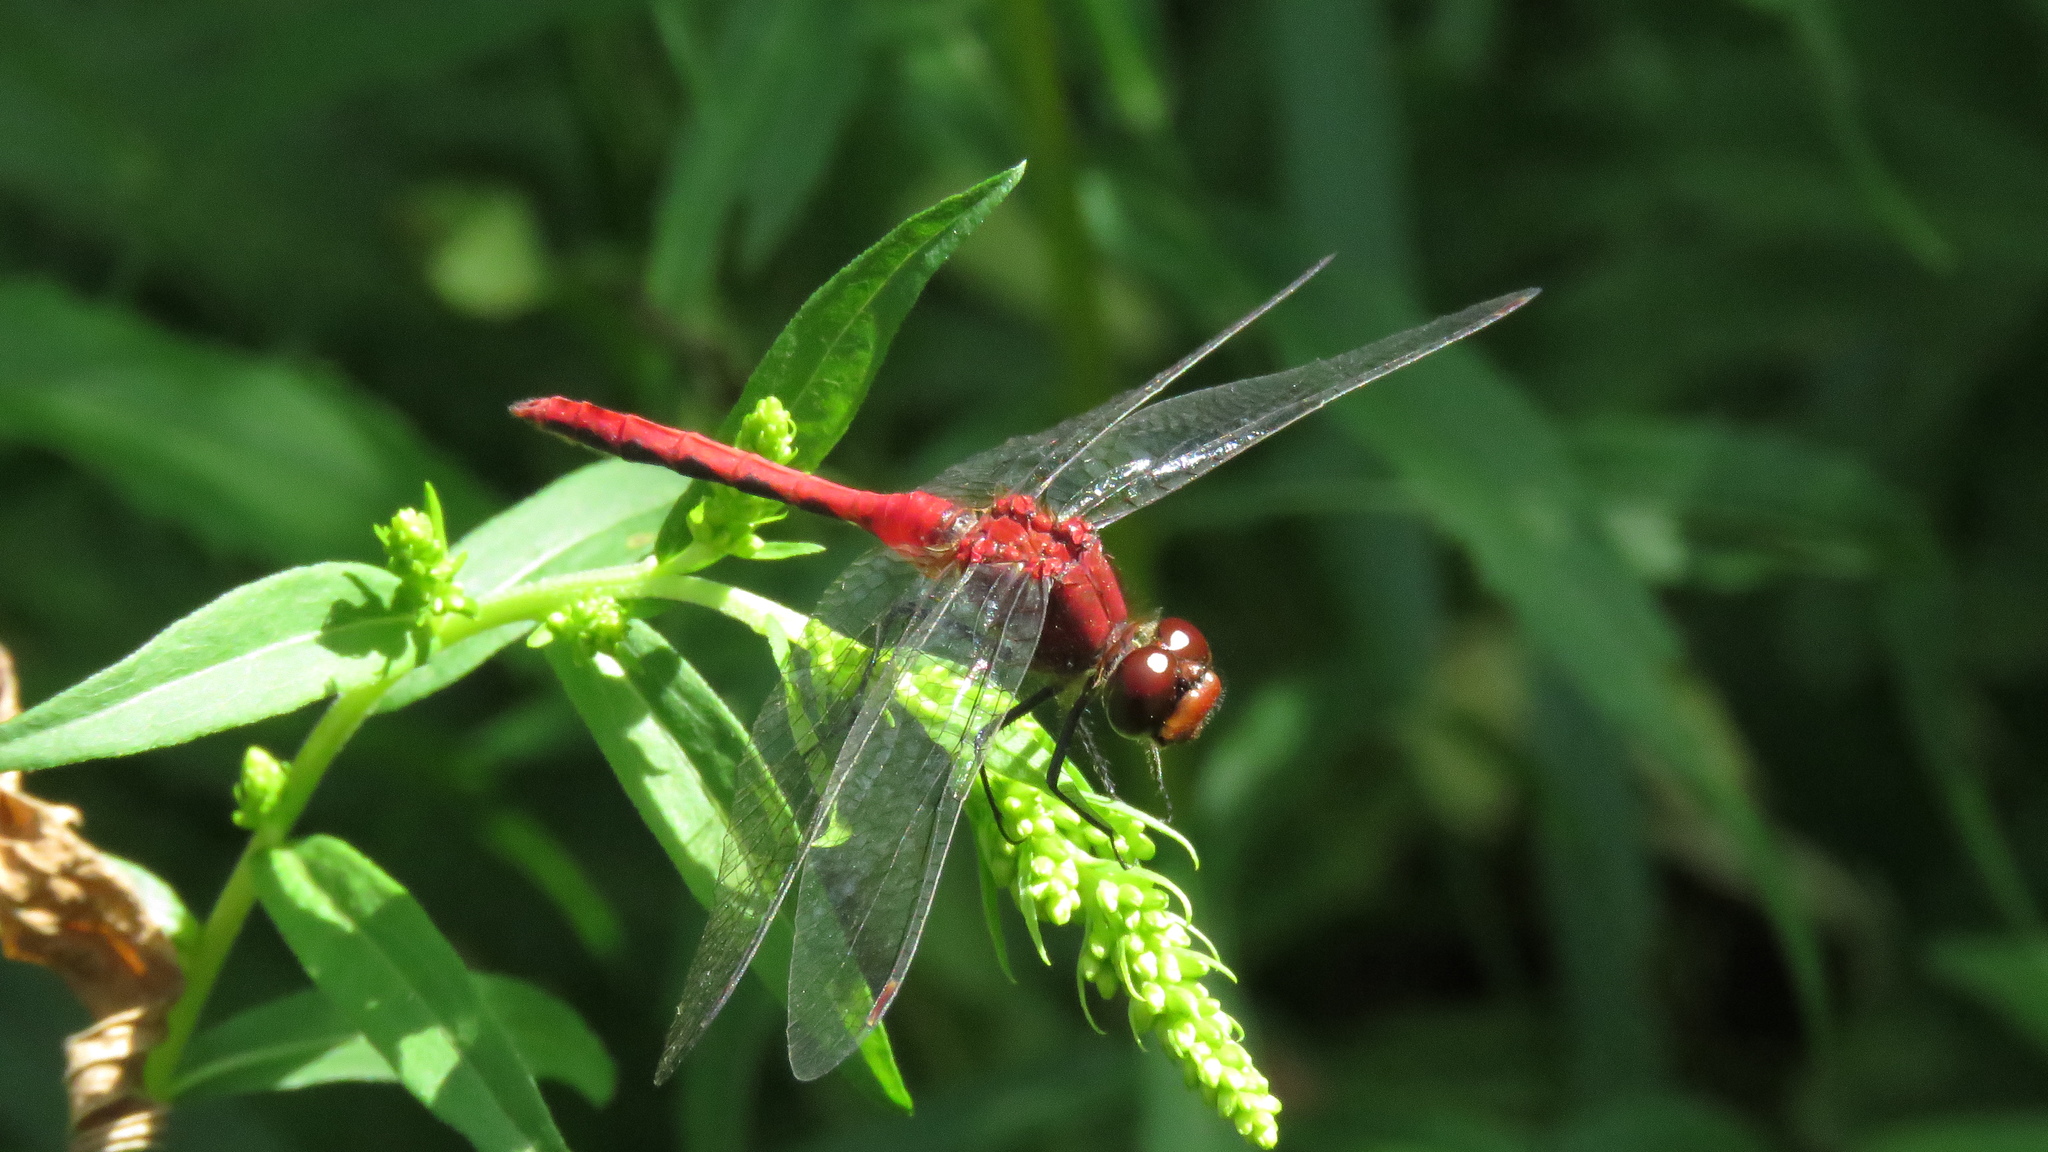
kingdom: Animalia
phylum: Arthropoda
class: Insecta
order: Odonata
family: Libellulidae
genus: Sympetrum
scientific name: Sympetrum
